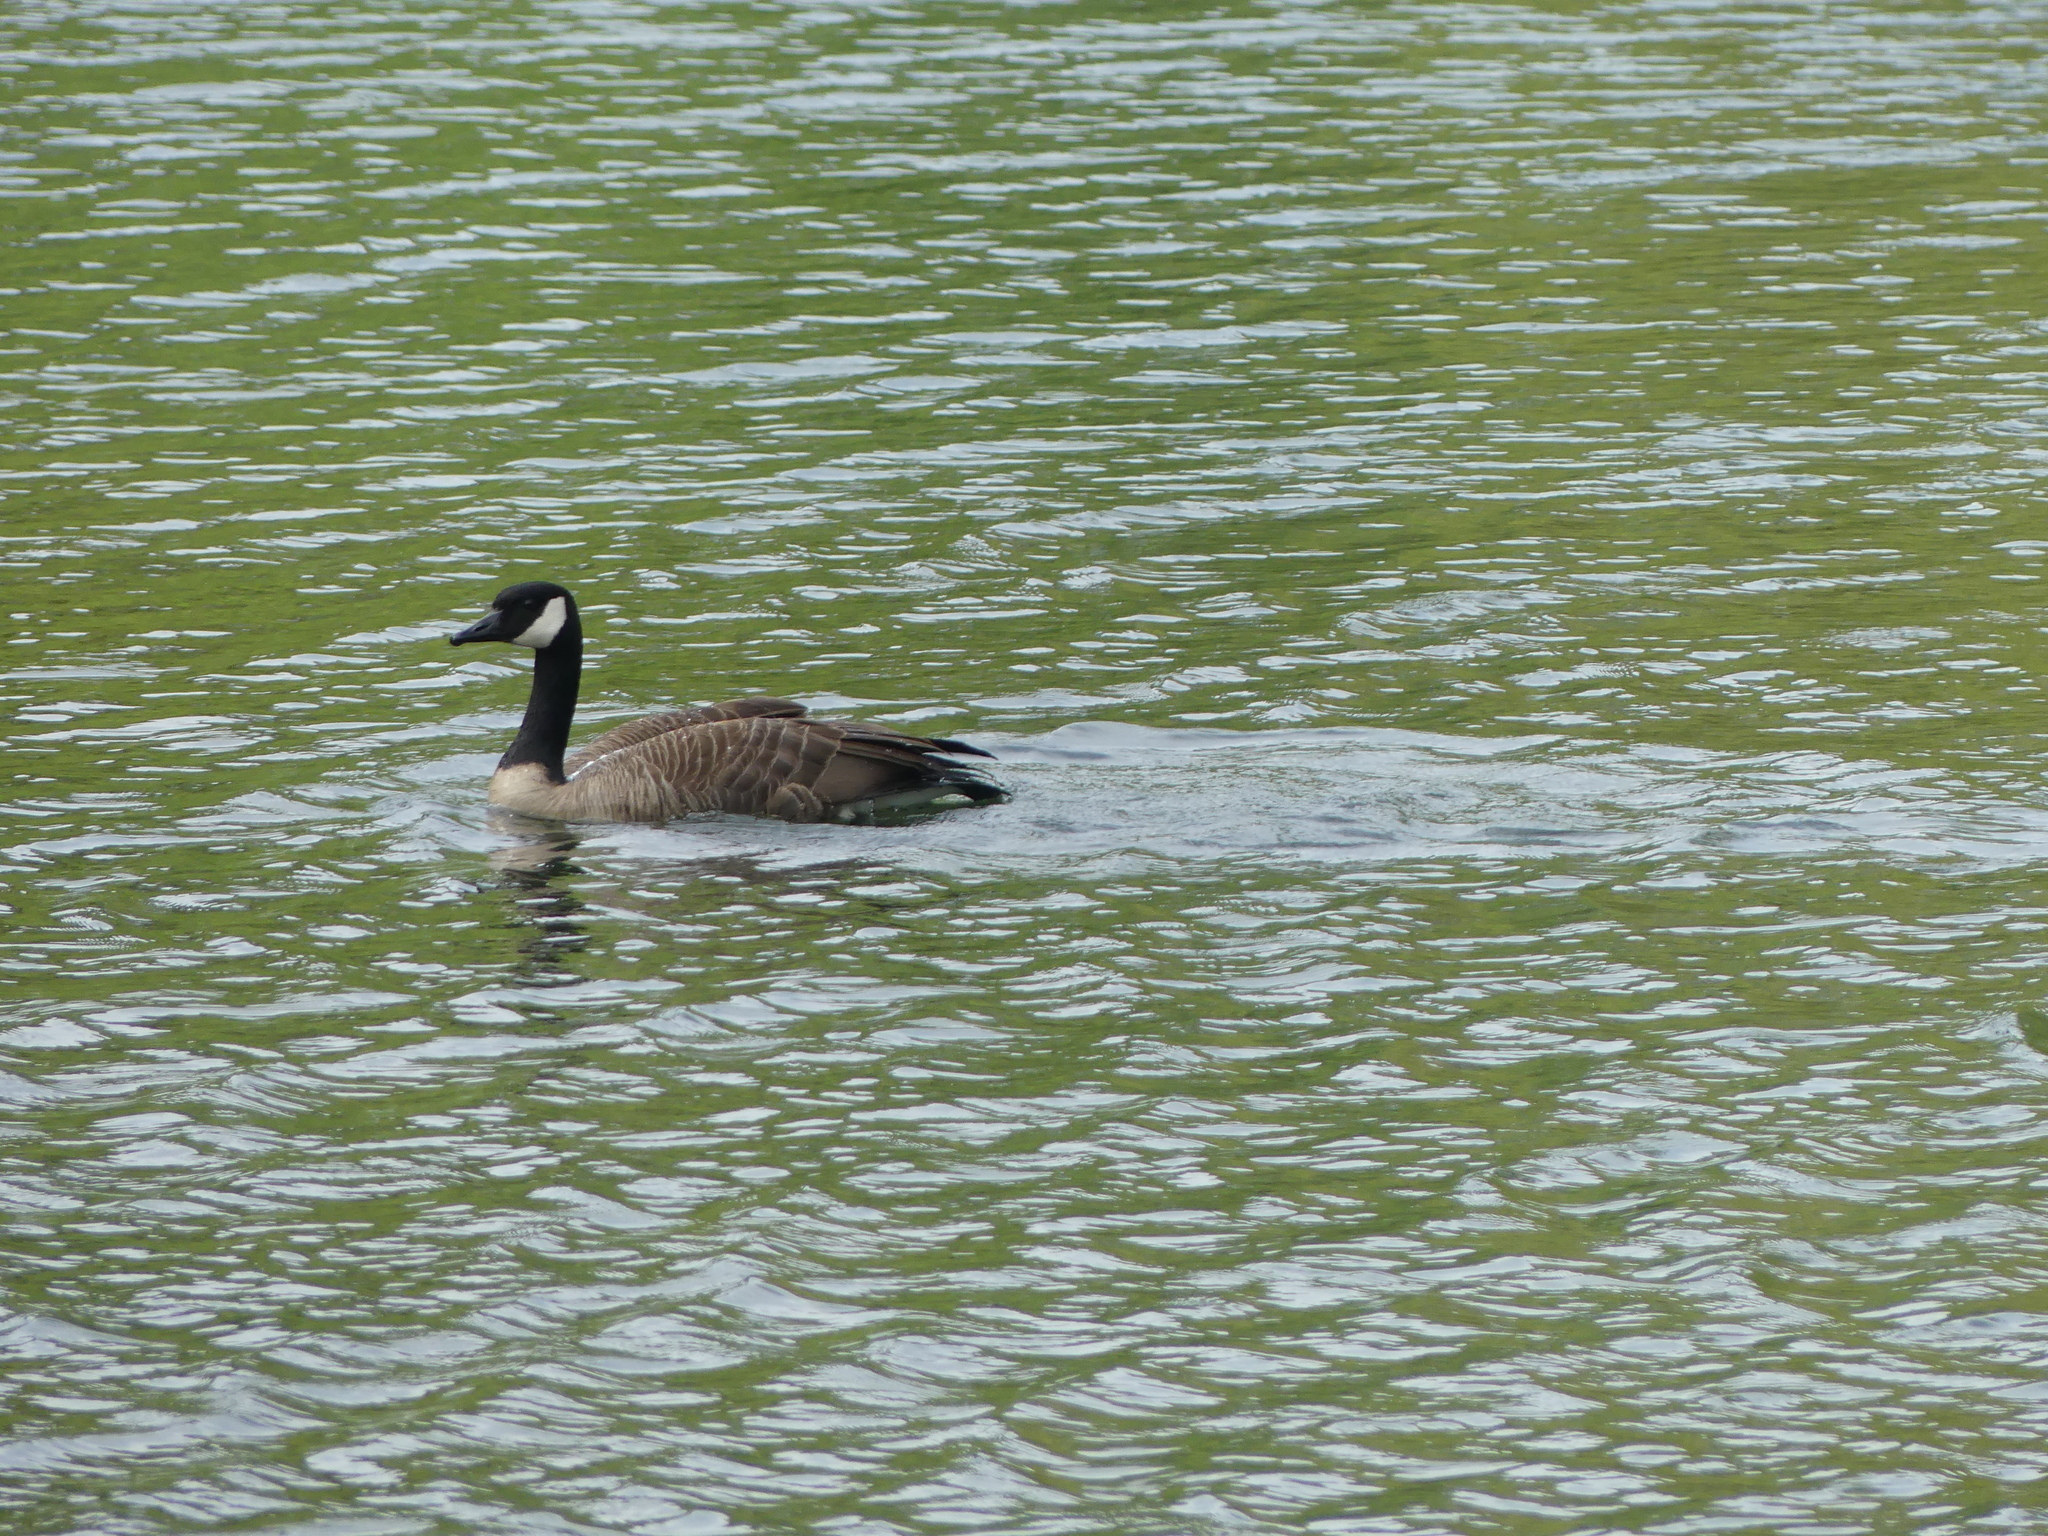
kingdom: Animalia
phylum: Chordata
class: Aves
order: Anseriformes
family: Anatidae
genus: Branta
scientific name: Branta canadensis
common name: Canada goose
